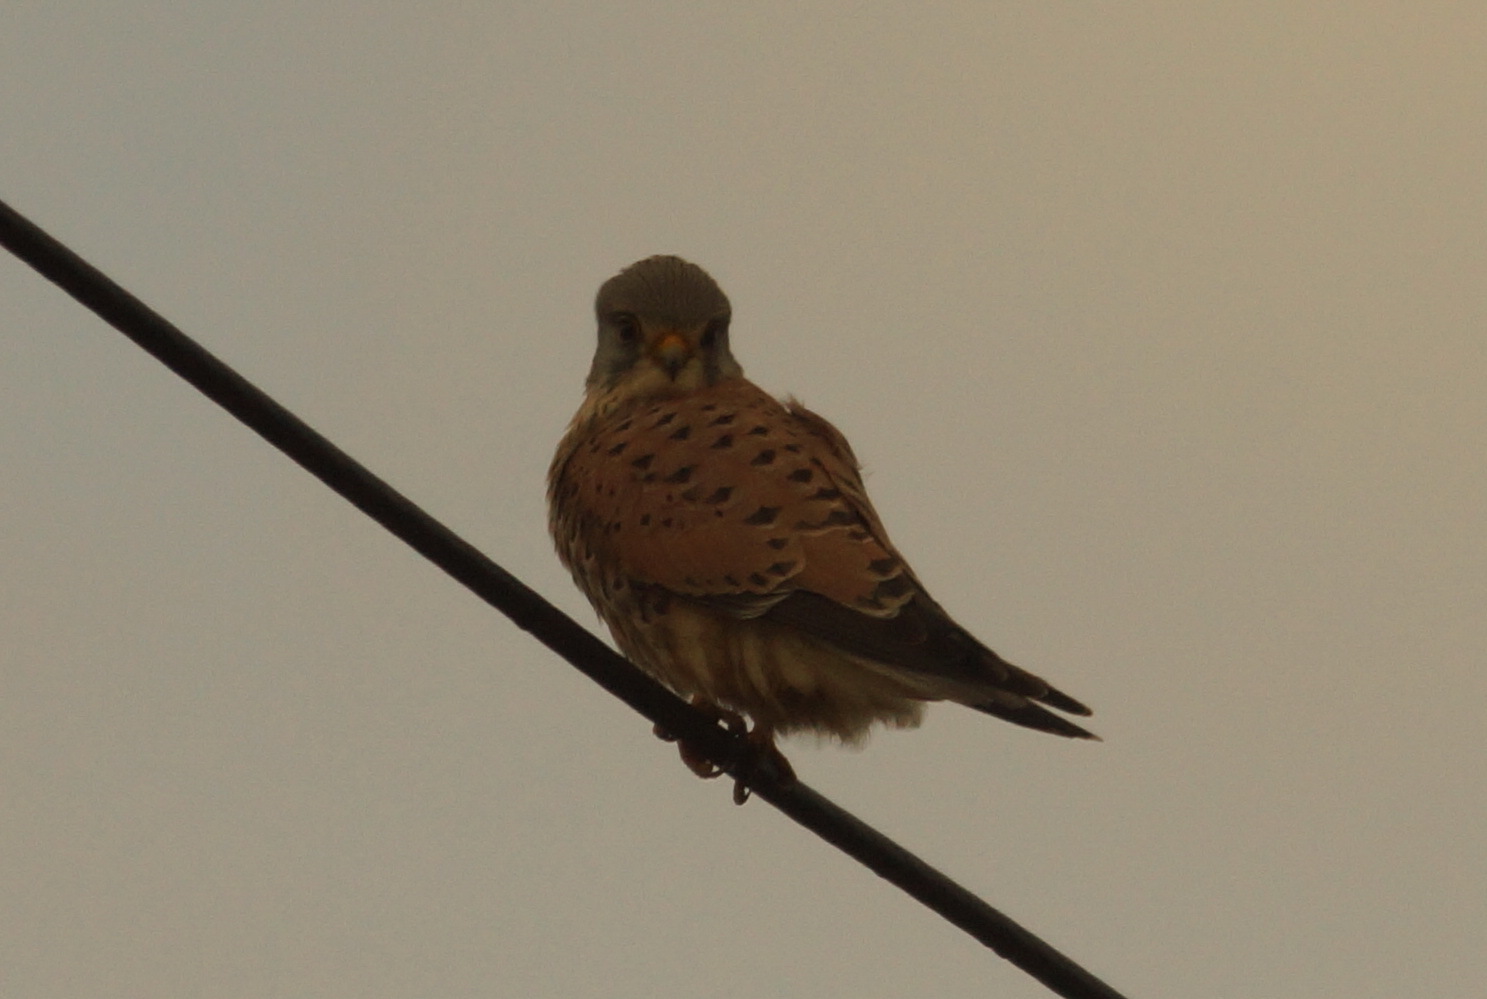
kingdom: Animalia
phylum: Chordata
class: Aves
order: Falconiformes
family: Falconidae
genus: Falco
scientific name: Falco tinnunculus
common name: Common kestrel
